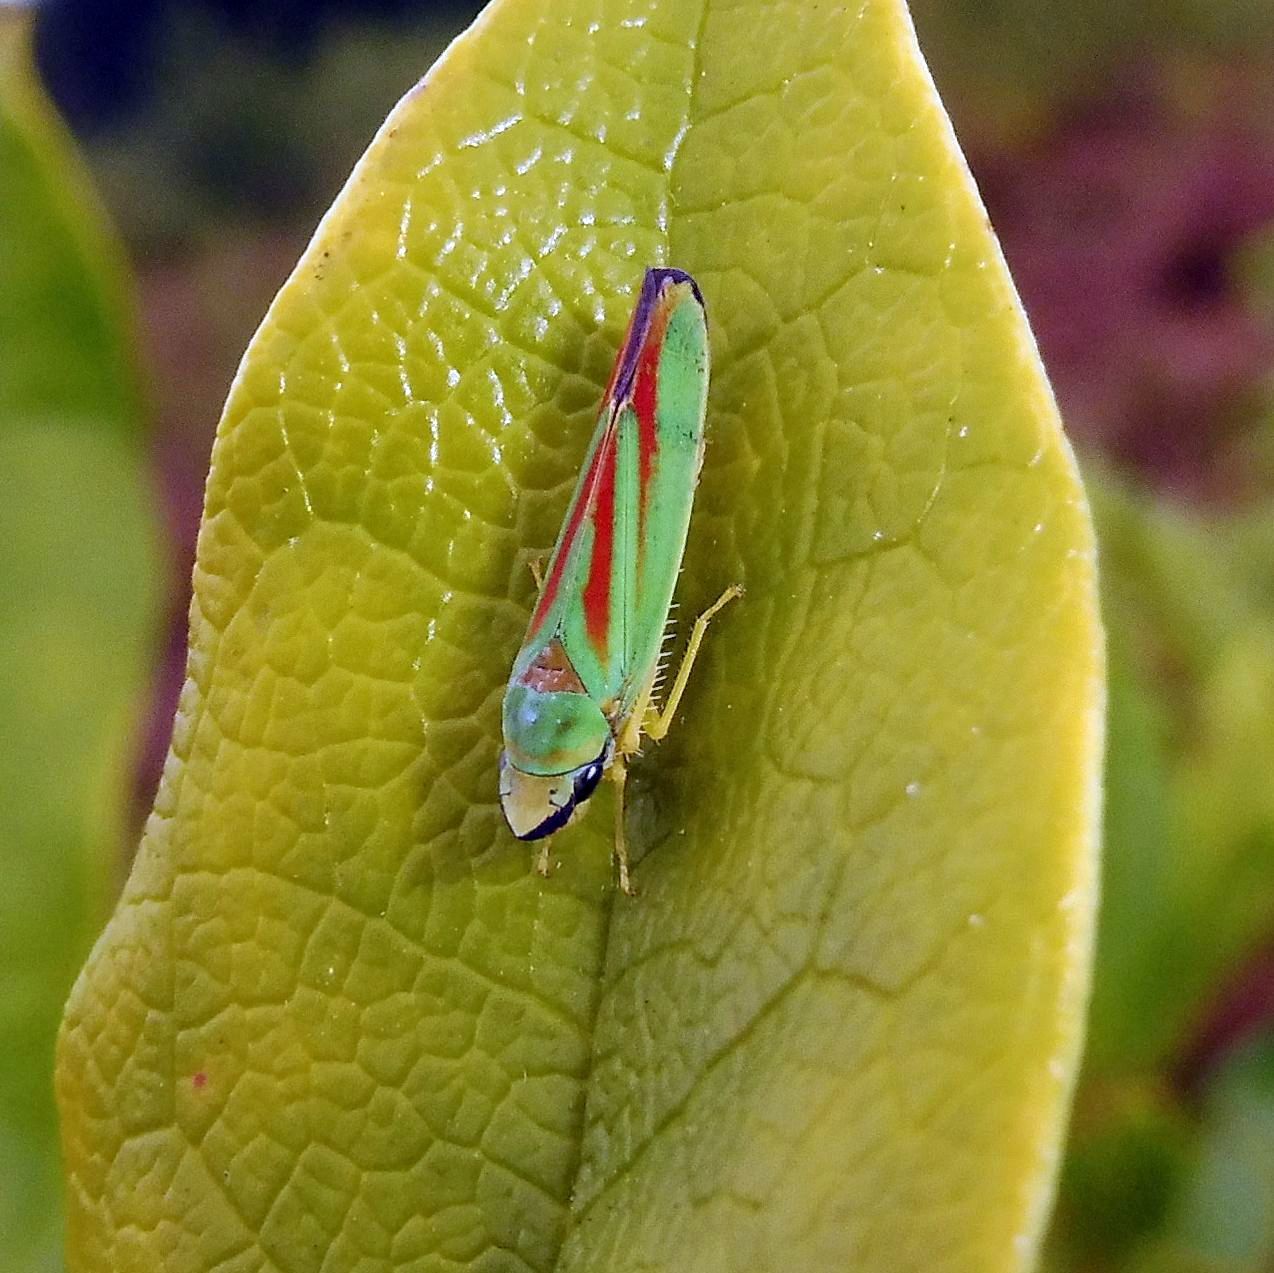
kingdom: Animalia
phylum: Arthropoda
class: Insecta
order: Hemiptera
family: Cicadellidae
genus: Graphocephala
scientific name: Graphocephala fennahi
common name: Rhododendron leafhopper
